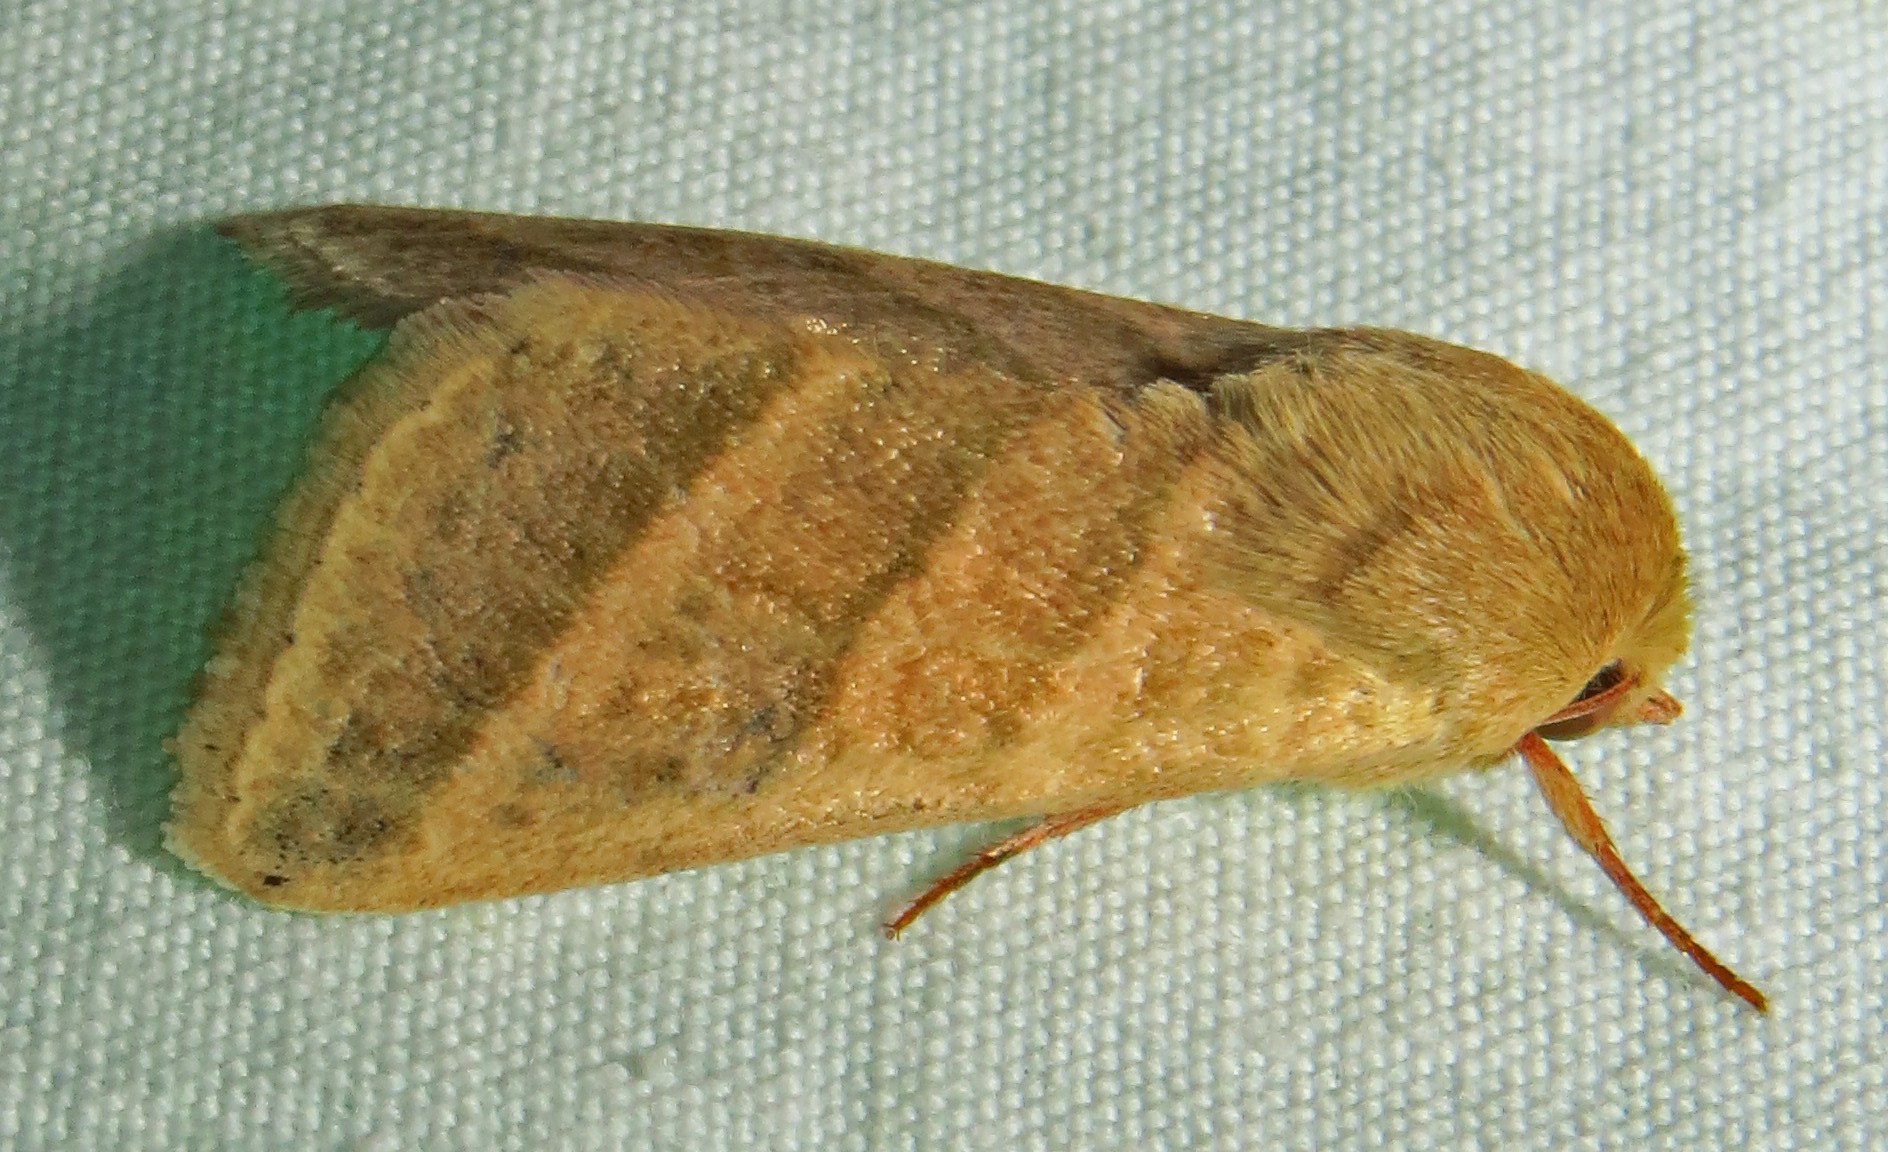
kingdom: Animalia
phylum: Arthropoda
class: Insecta
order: Lepidoptera
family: Noctuidae
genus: Chloridea
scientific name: Chloridea virescens
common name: Tobacco budworm
